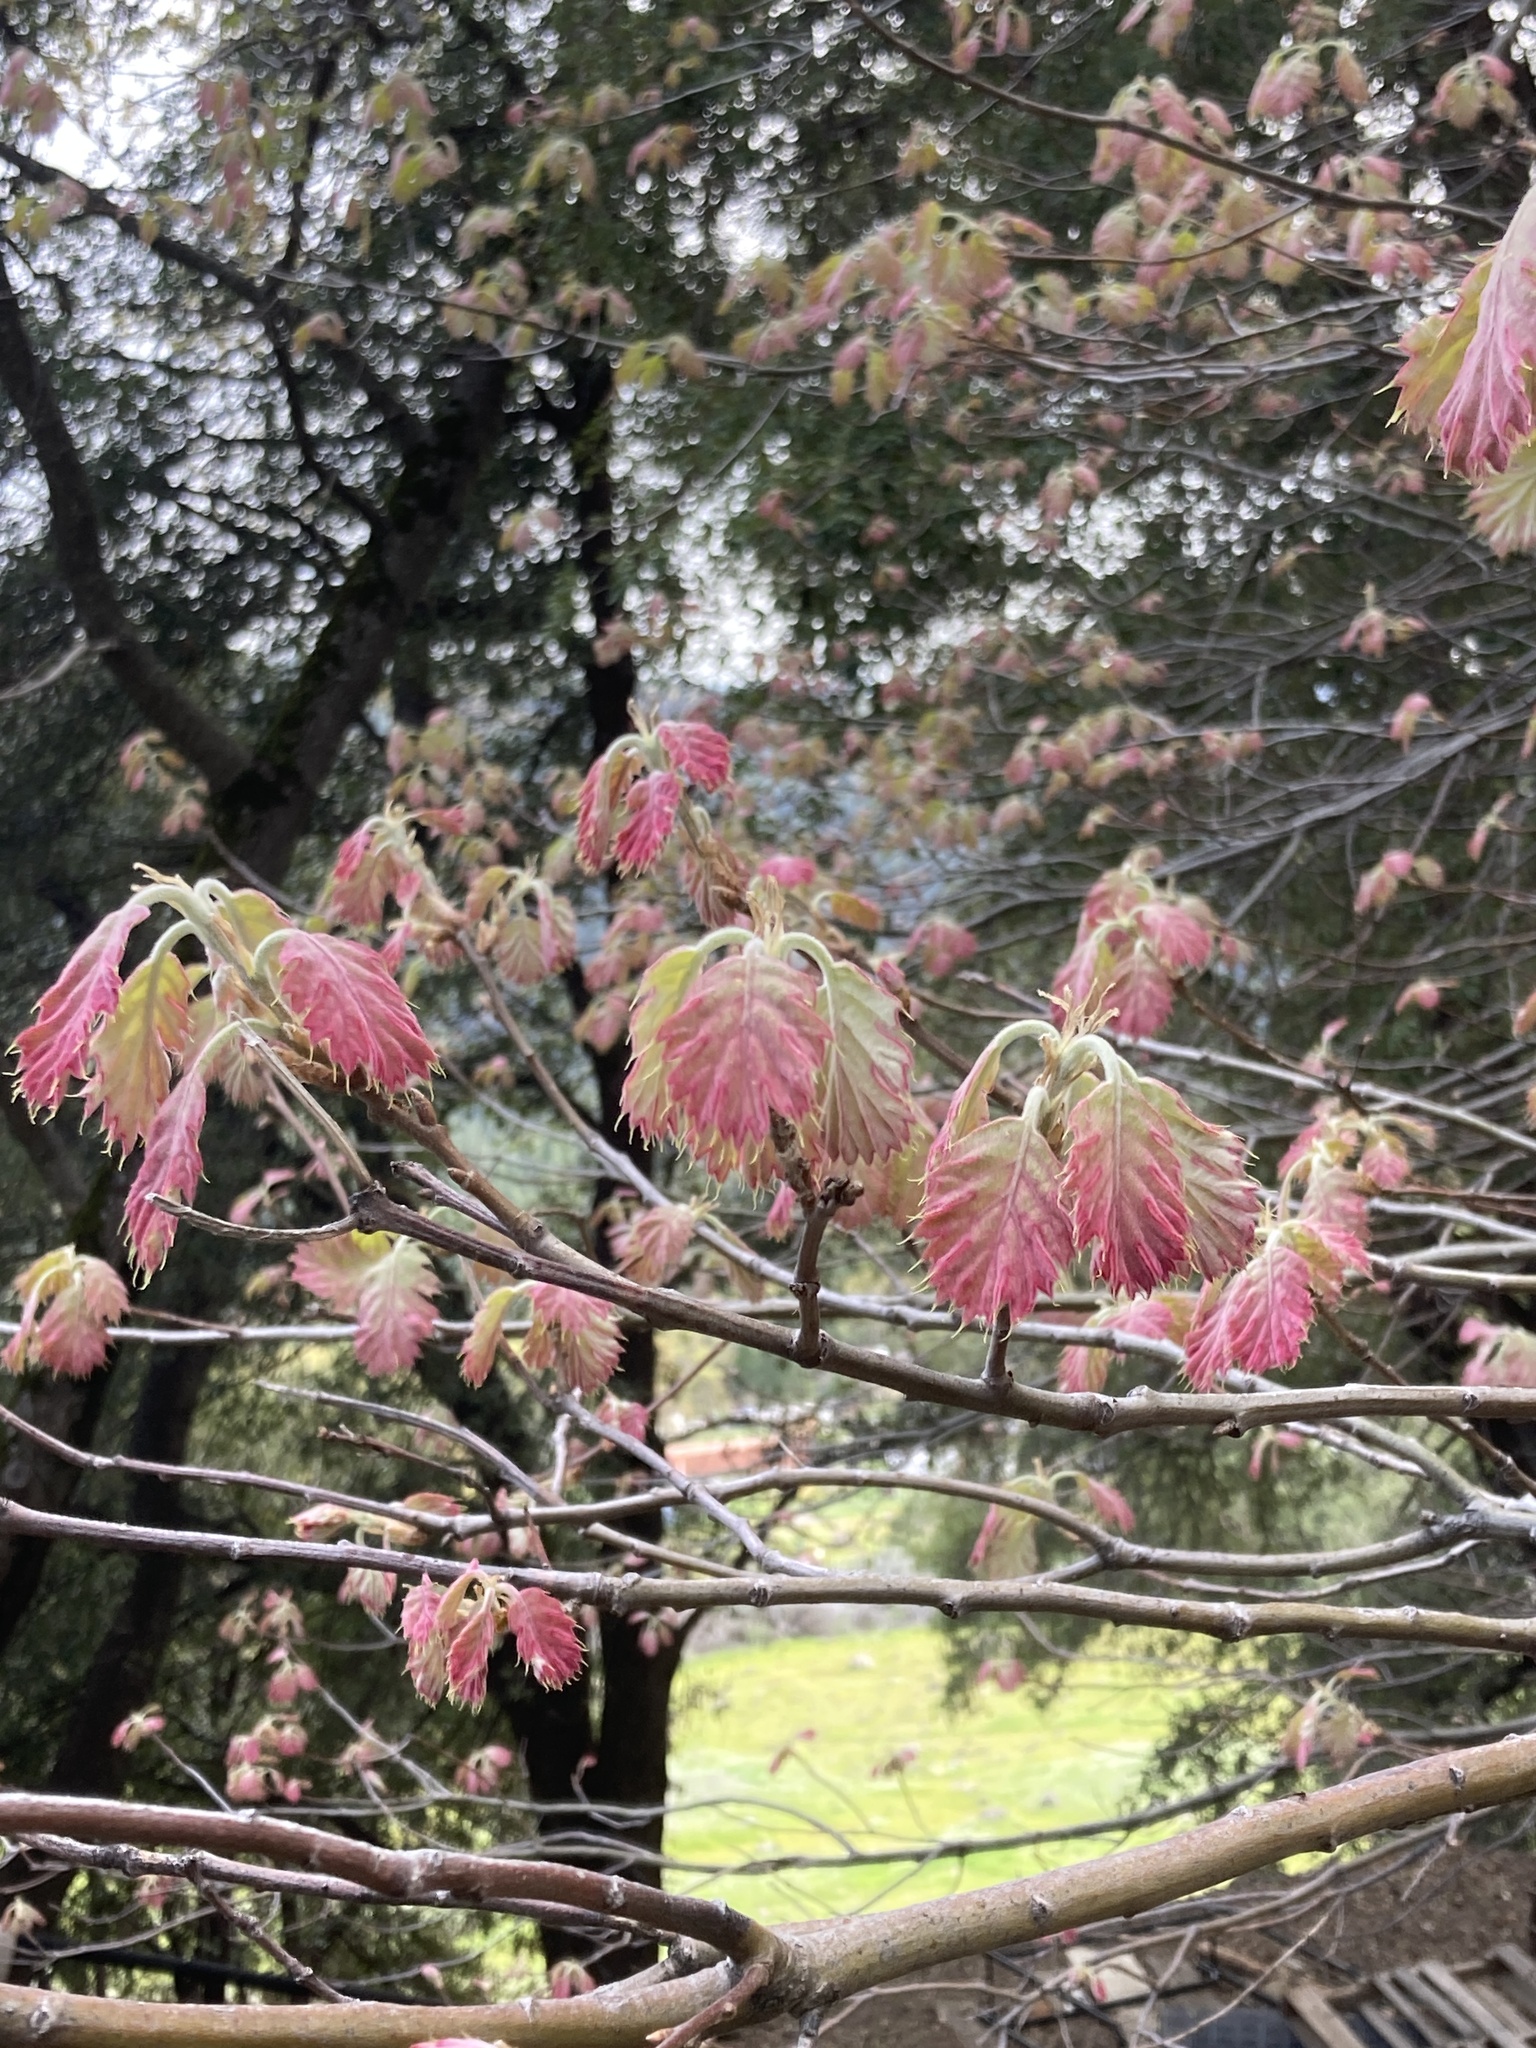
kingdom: Plantae
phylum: Tracheophyta
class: Magnoliopsida
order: Fagales
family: Fagaceae
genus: Quercus
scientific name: Quercus kelloggii
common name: California black oak
